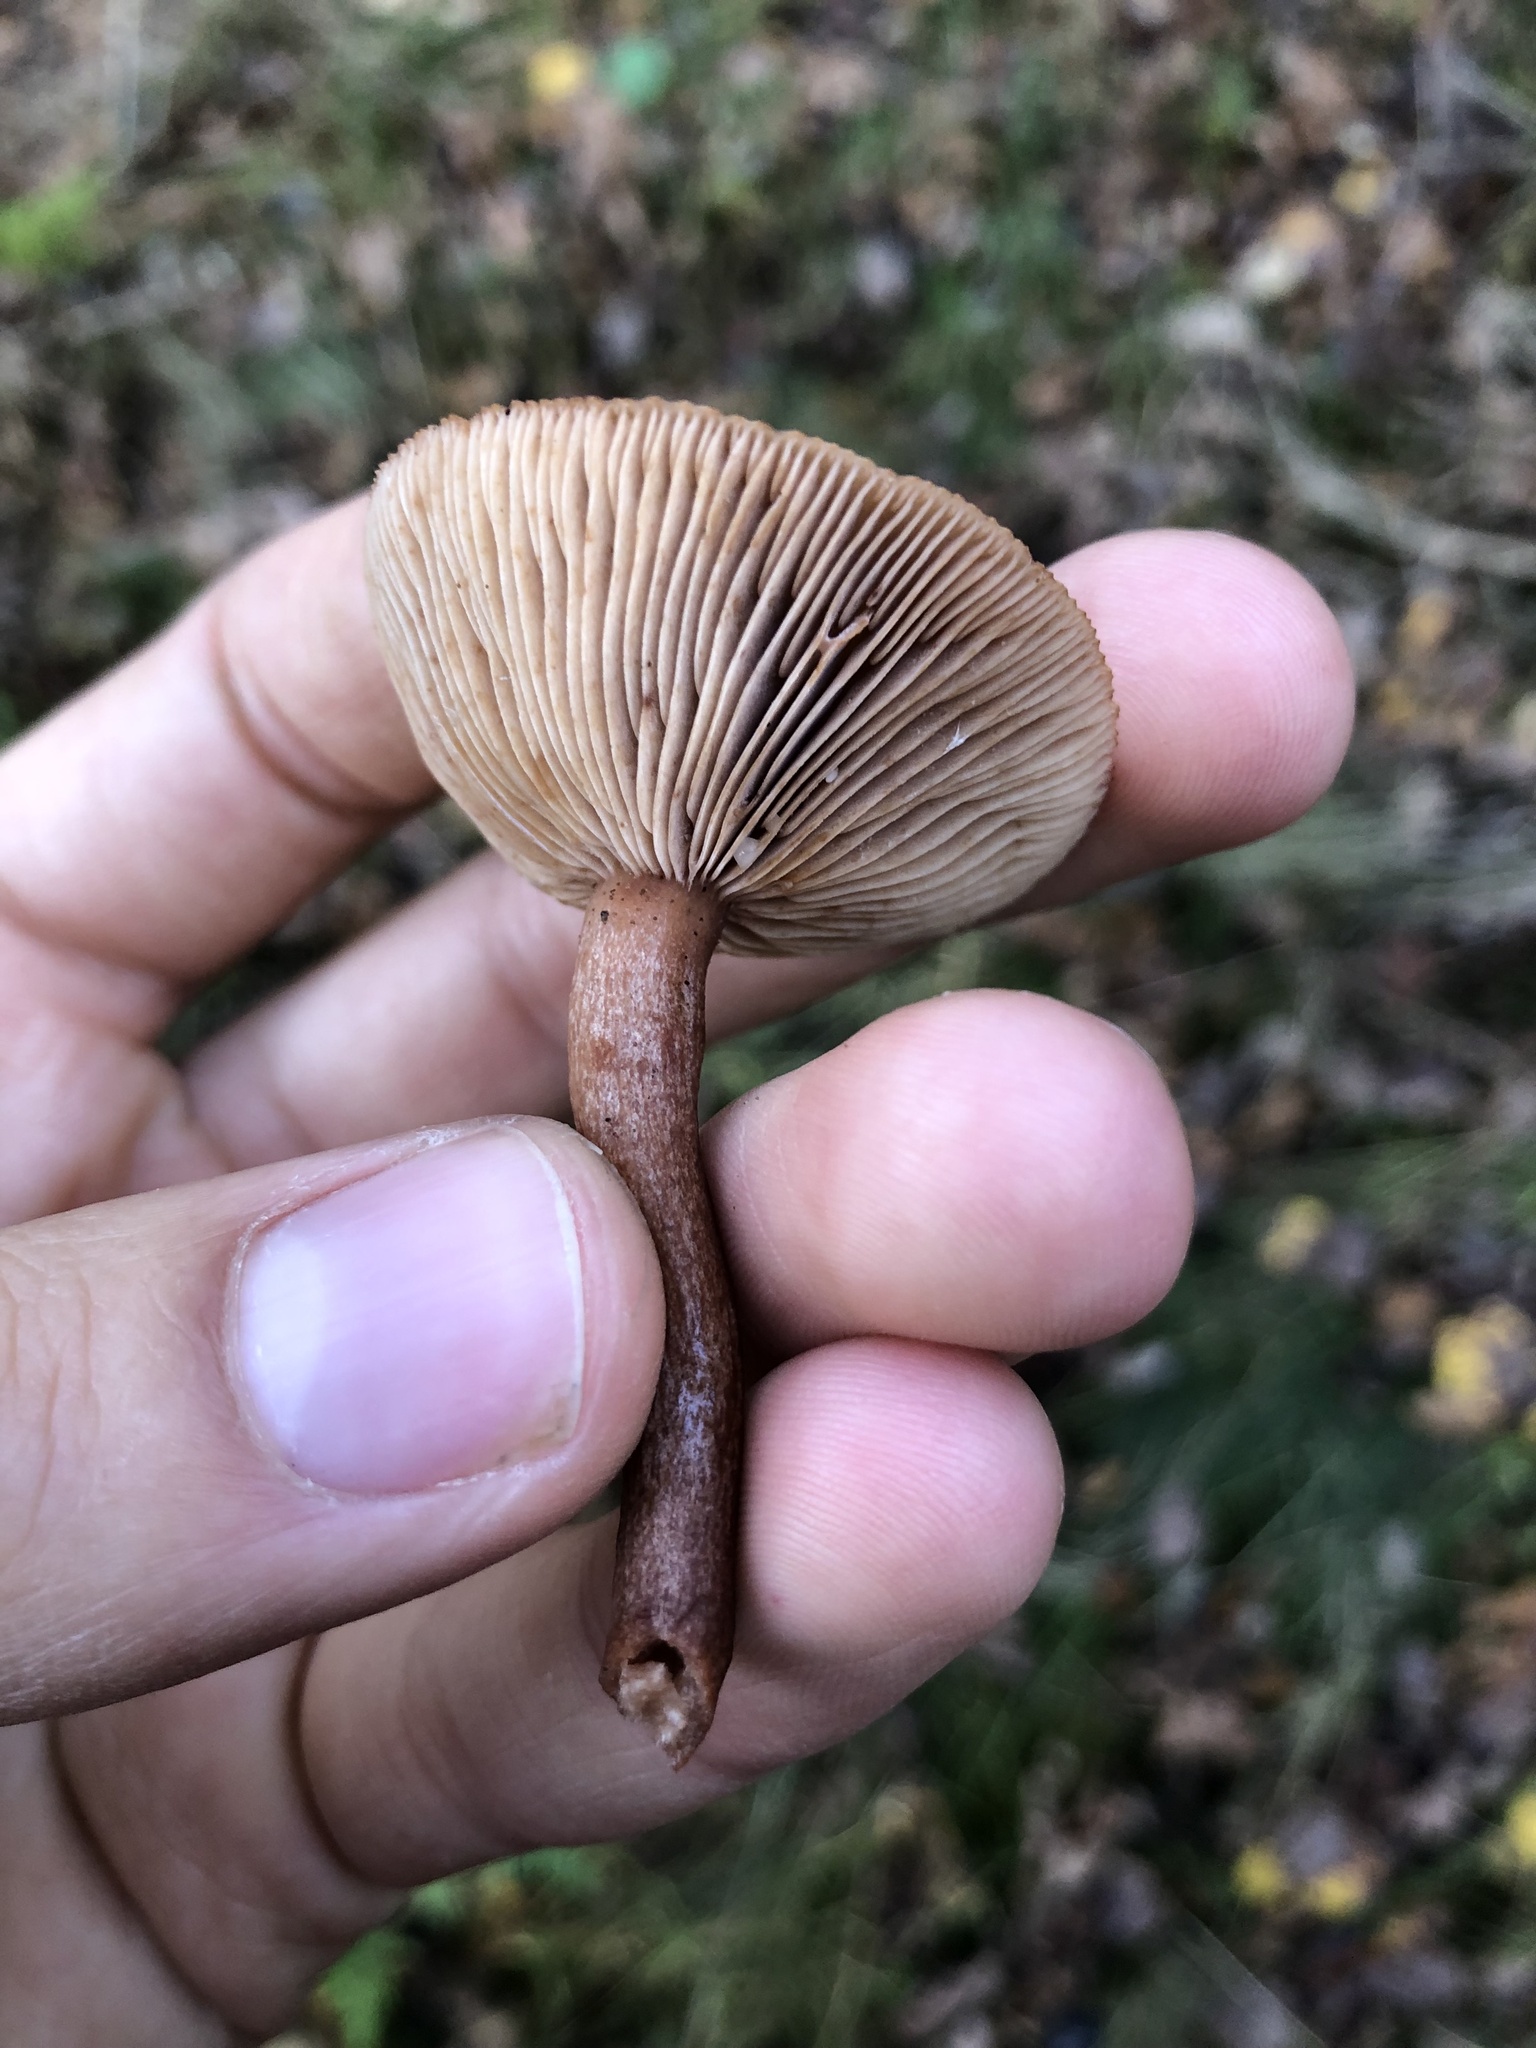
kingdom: Fungi
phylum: Basidiomycota
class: Agaricomycetes
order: Russulales
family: Russulaceae
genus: Lactarius
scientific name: Lactarius rufus
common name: Rufous milk-cap
